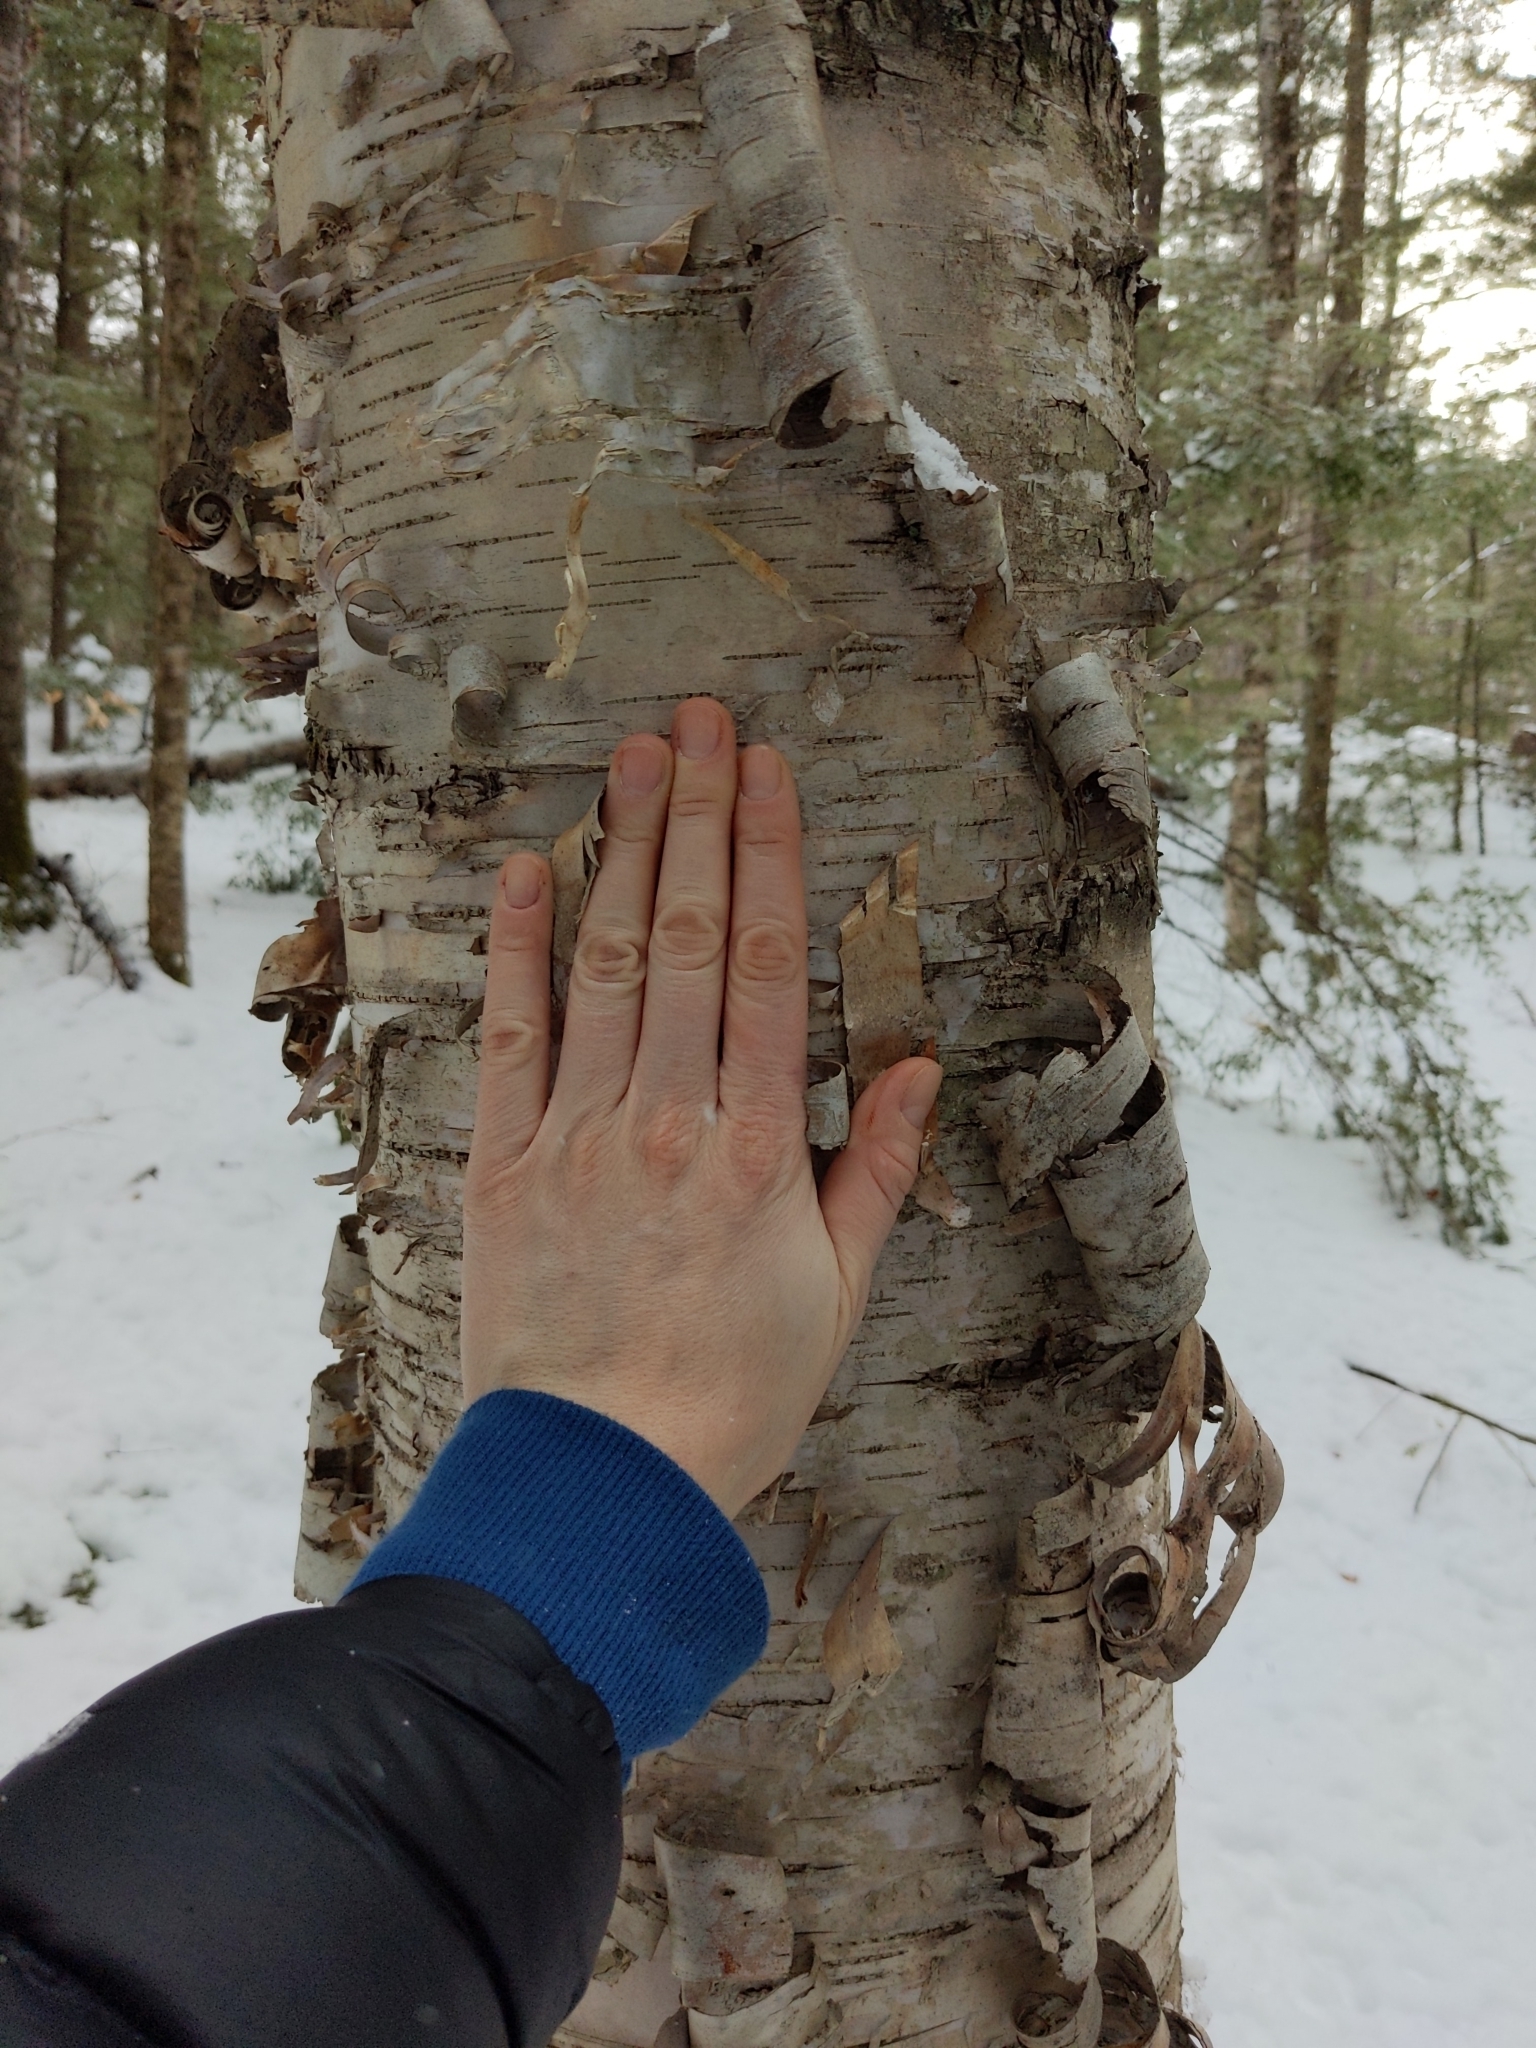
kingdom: Plantae
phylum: Tracheophyta
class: Magnoliopsida
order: Fagales
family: Betulaceae
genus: Betula
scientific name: Betula papyrifera
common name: Paper birch
